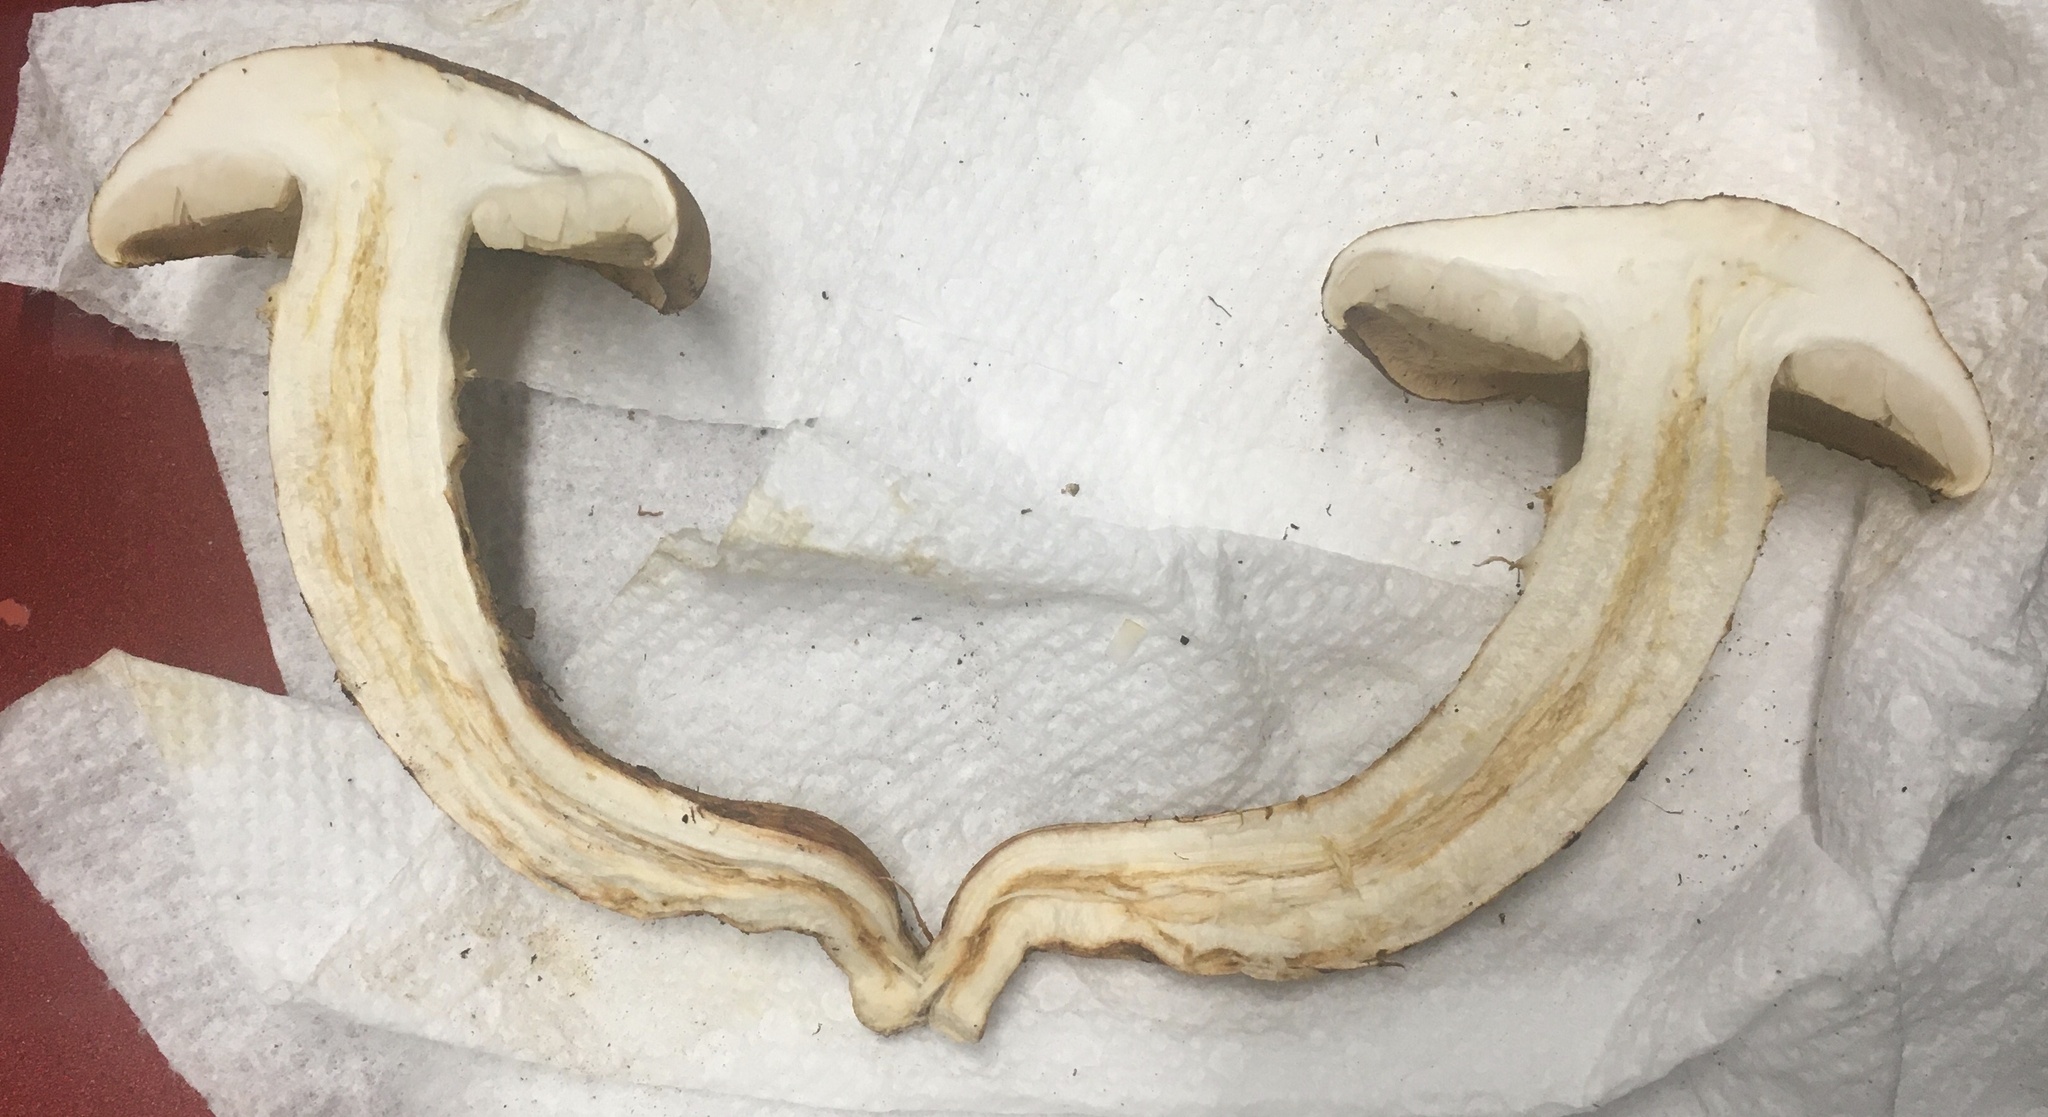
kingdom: Fungi
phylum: Basidiomycota
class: Agaricomycetes
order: Agaricales
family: Tricholomataceae
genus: Tricholoma
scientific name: Tricholoma focale
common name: Booted knight
